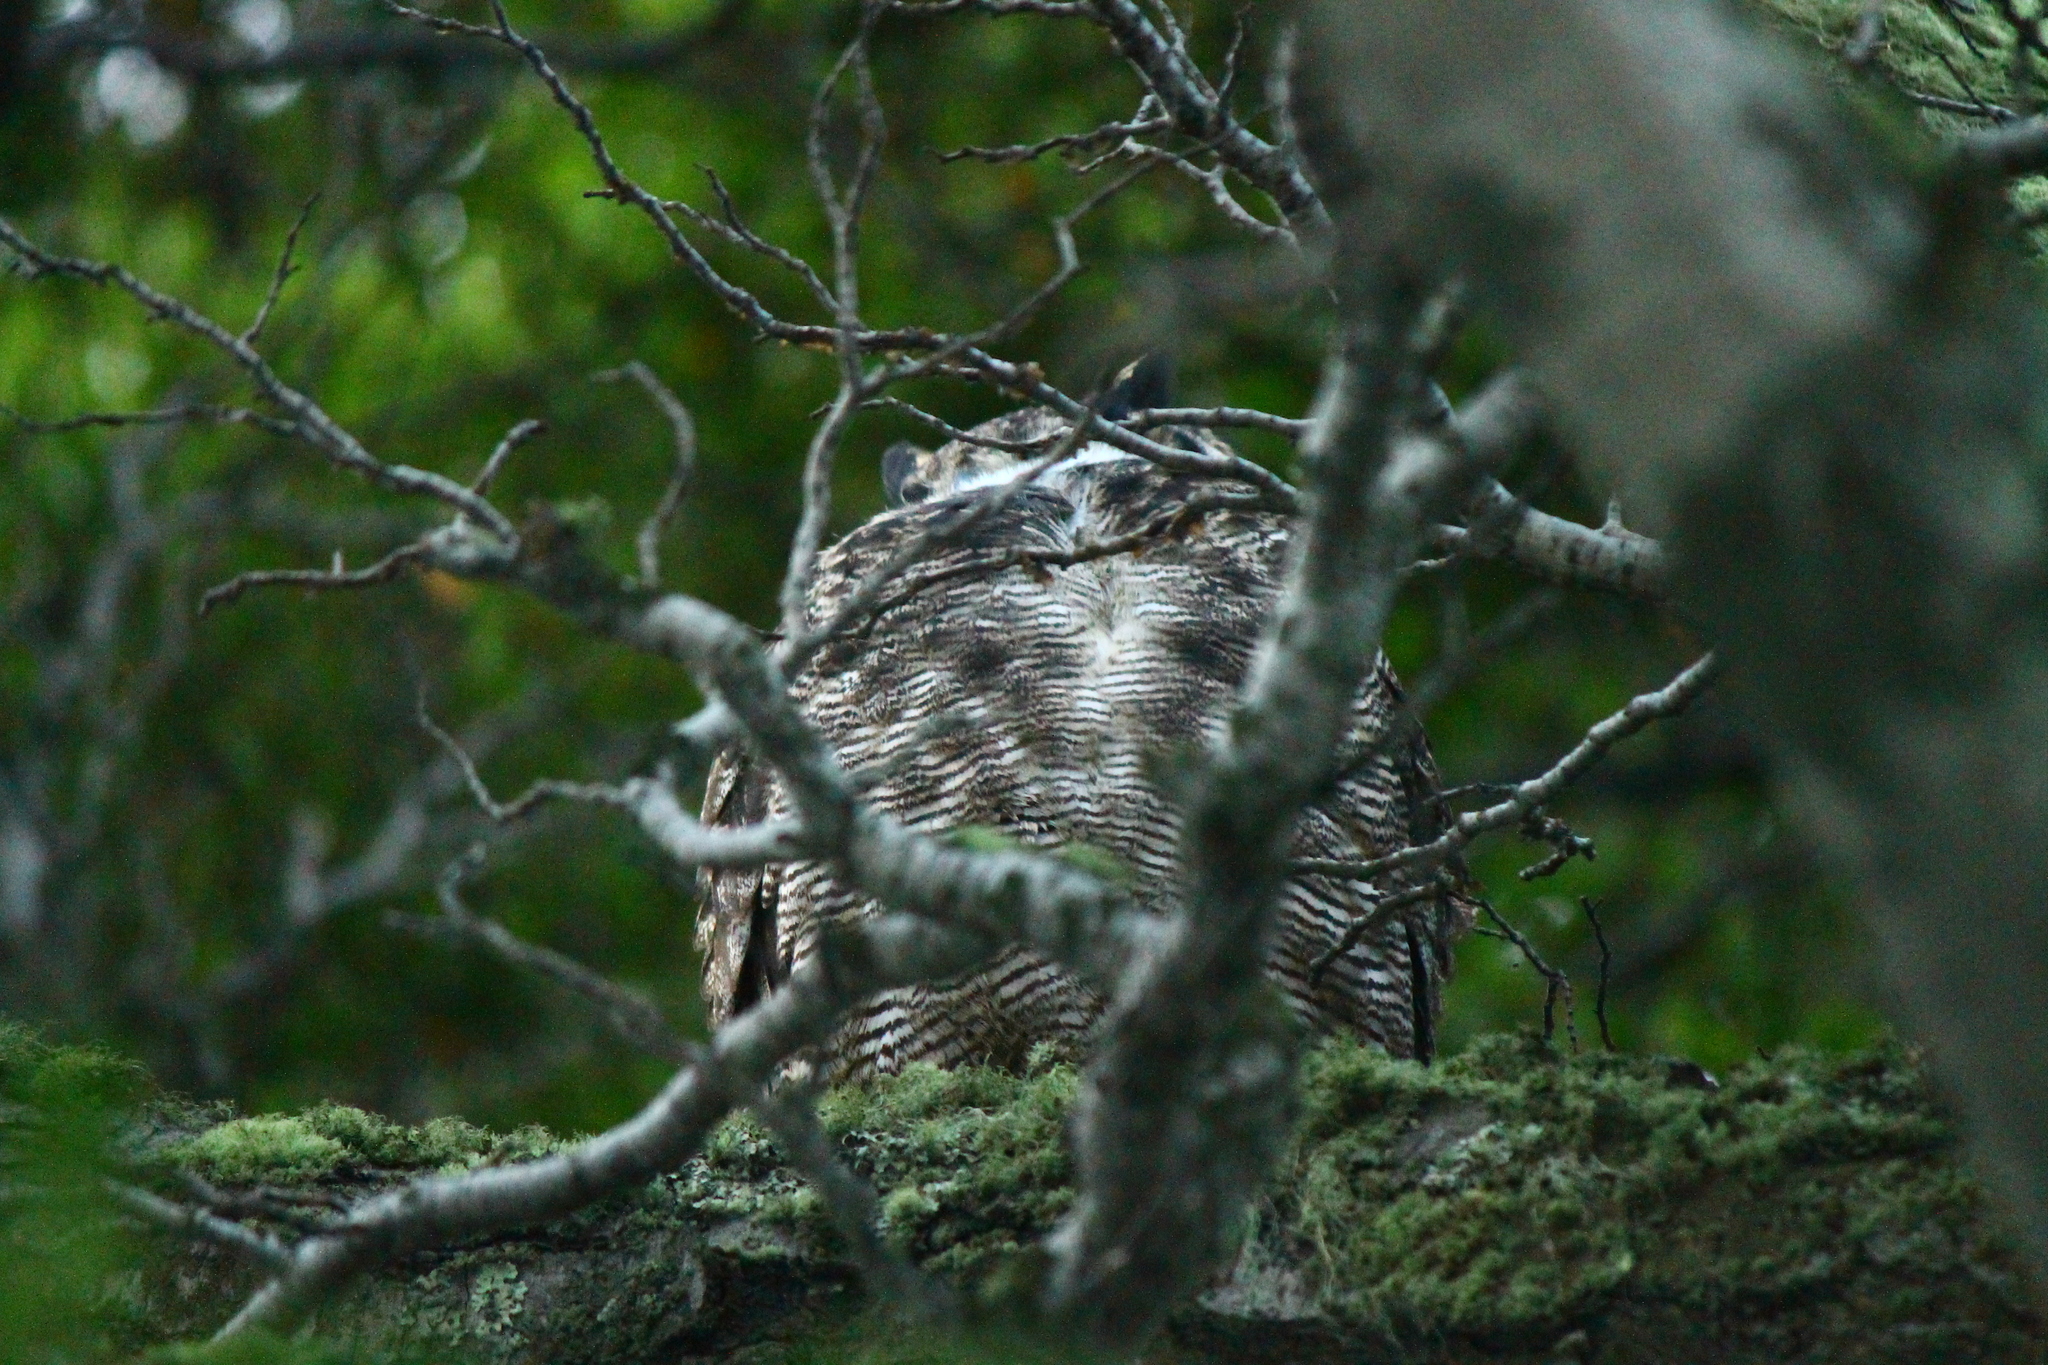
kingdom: Animalia
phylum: Chordata
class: Aves
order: Strigiformes
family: Strigidae
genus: Bubo
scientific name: Bubo magellanicus
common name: Lesser horned owl
